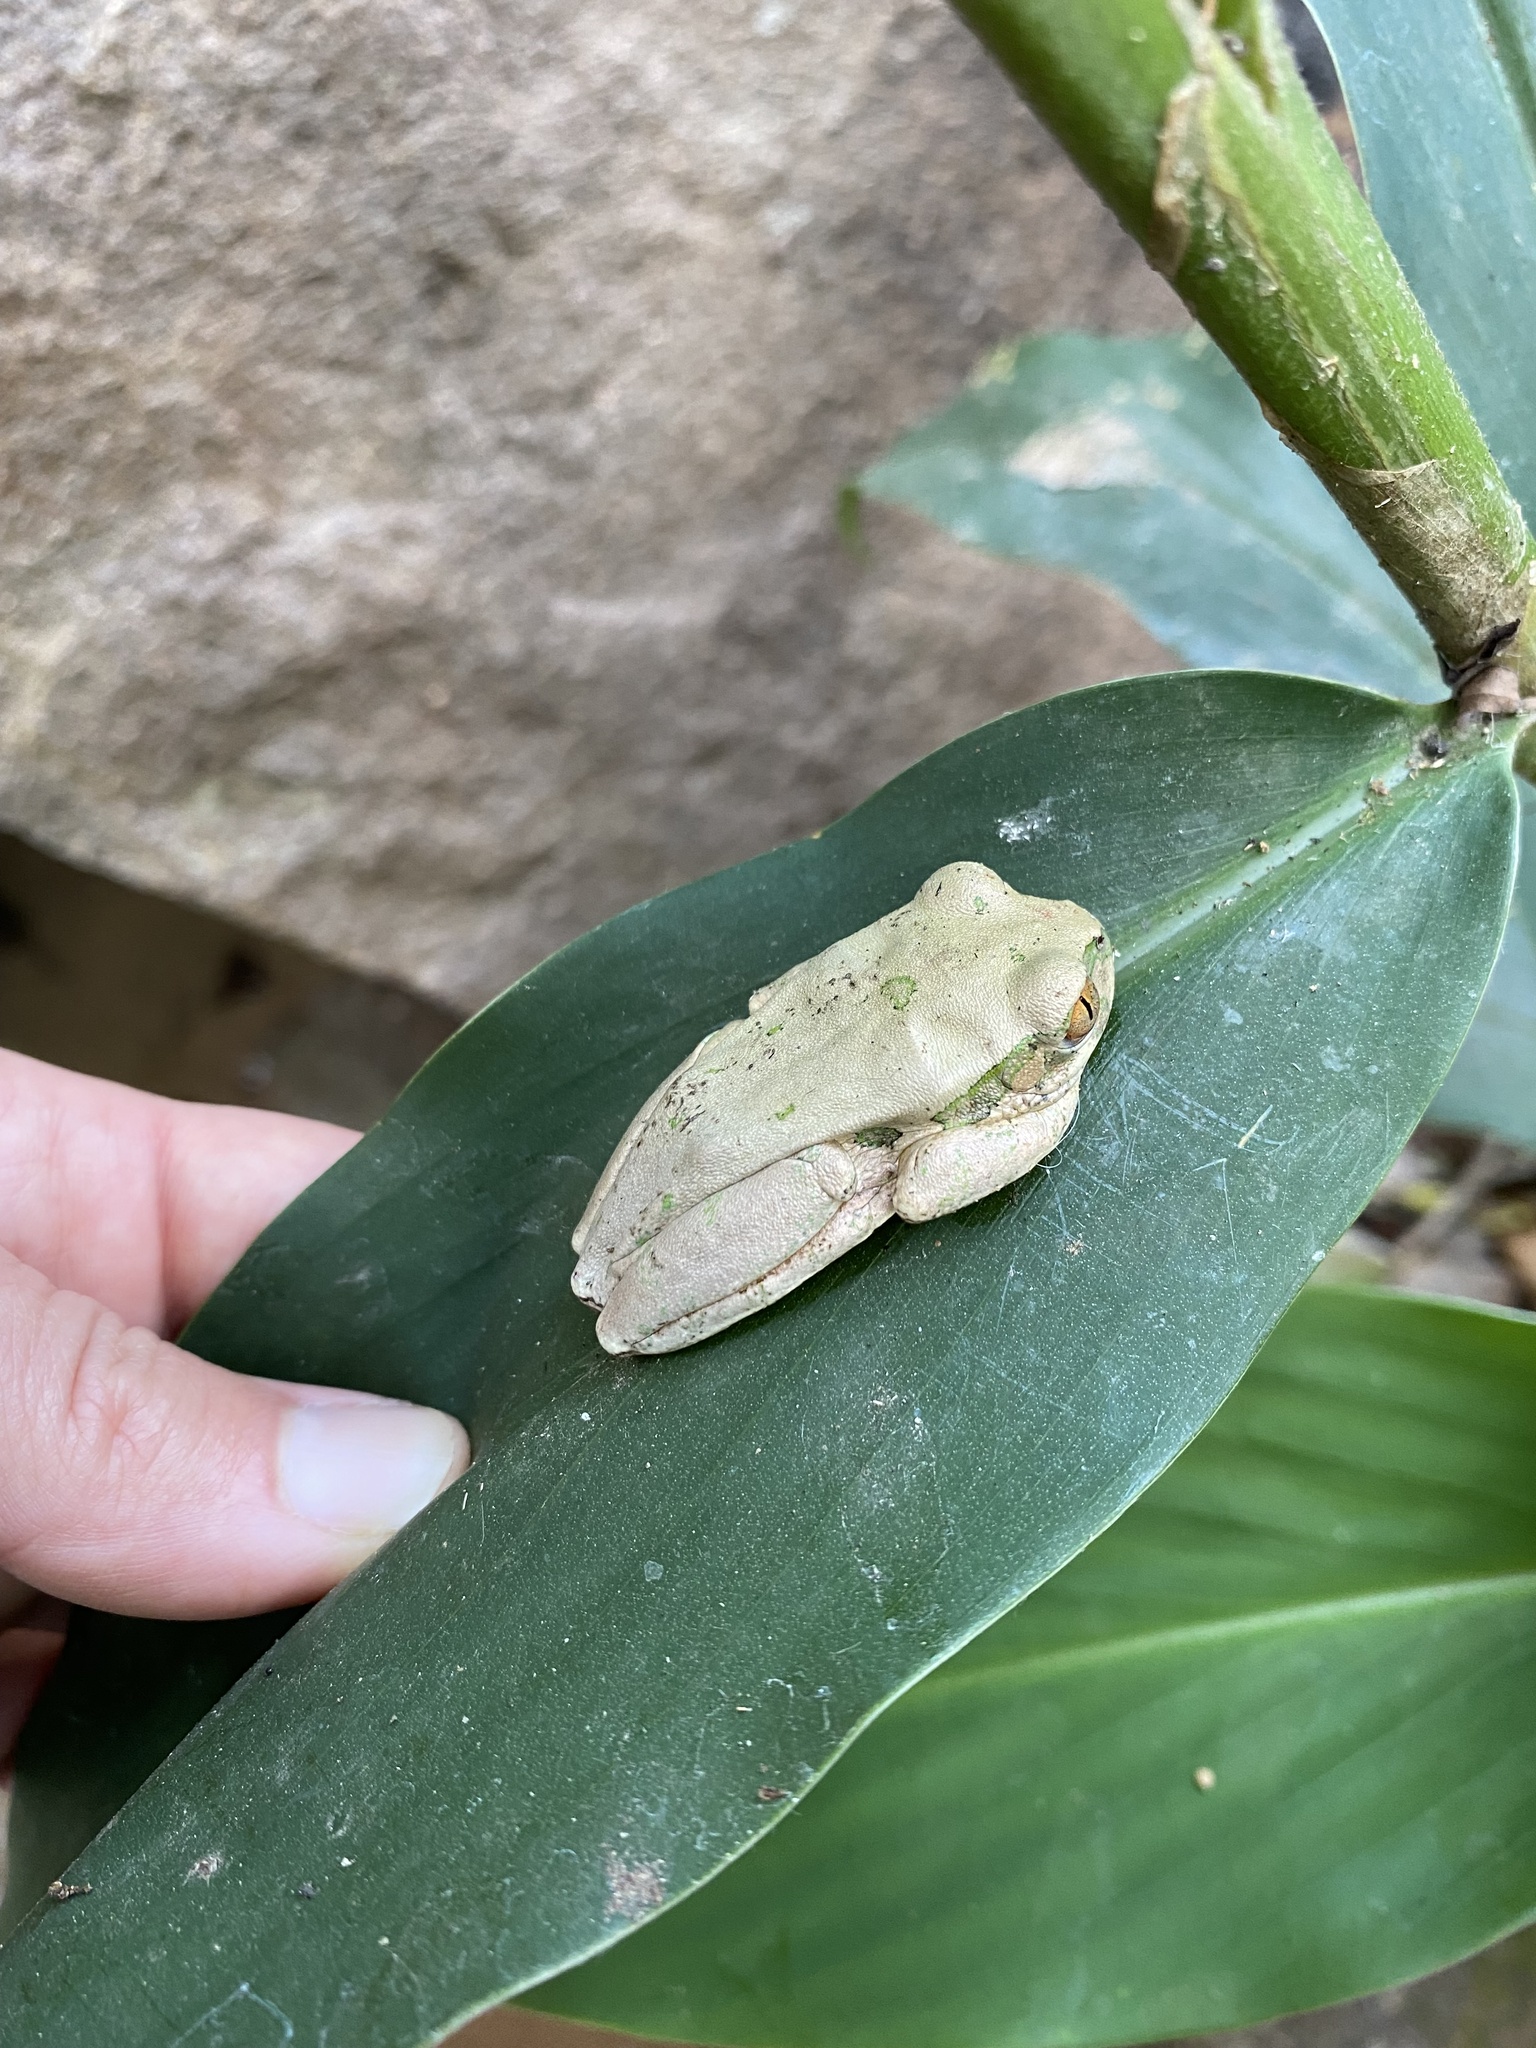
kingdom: Animalia
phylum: Chordata
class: Amphibia
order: Anura
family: Arthroleptidae
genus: Leptopelis
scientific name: Leptopelis natalensis
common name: Natal tree frog
